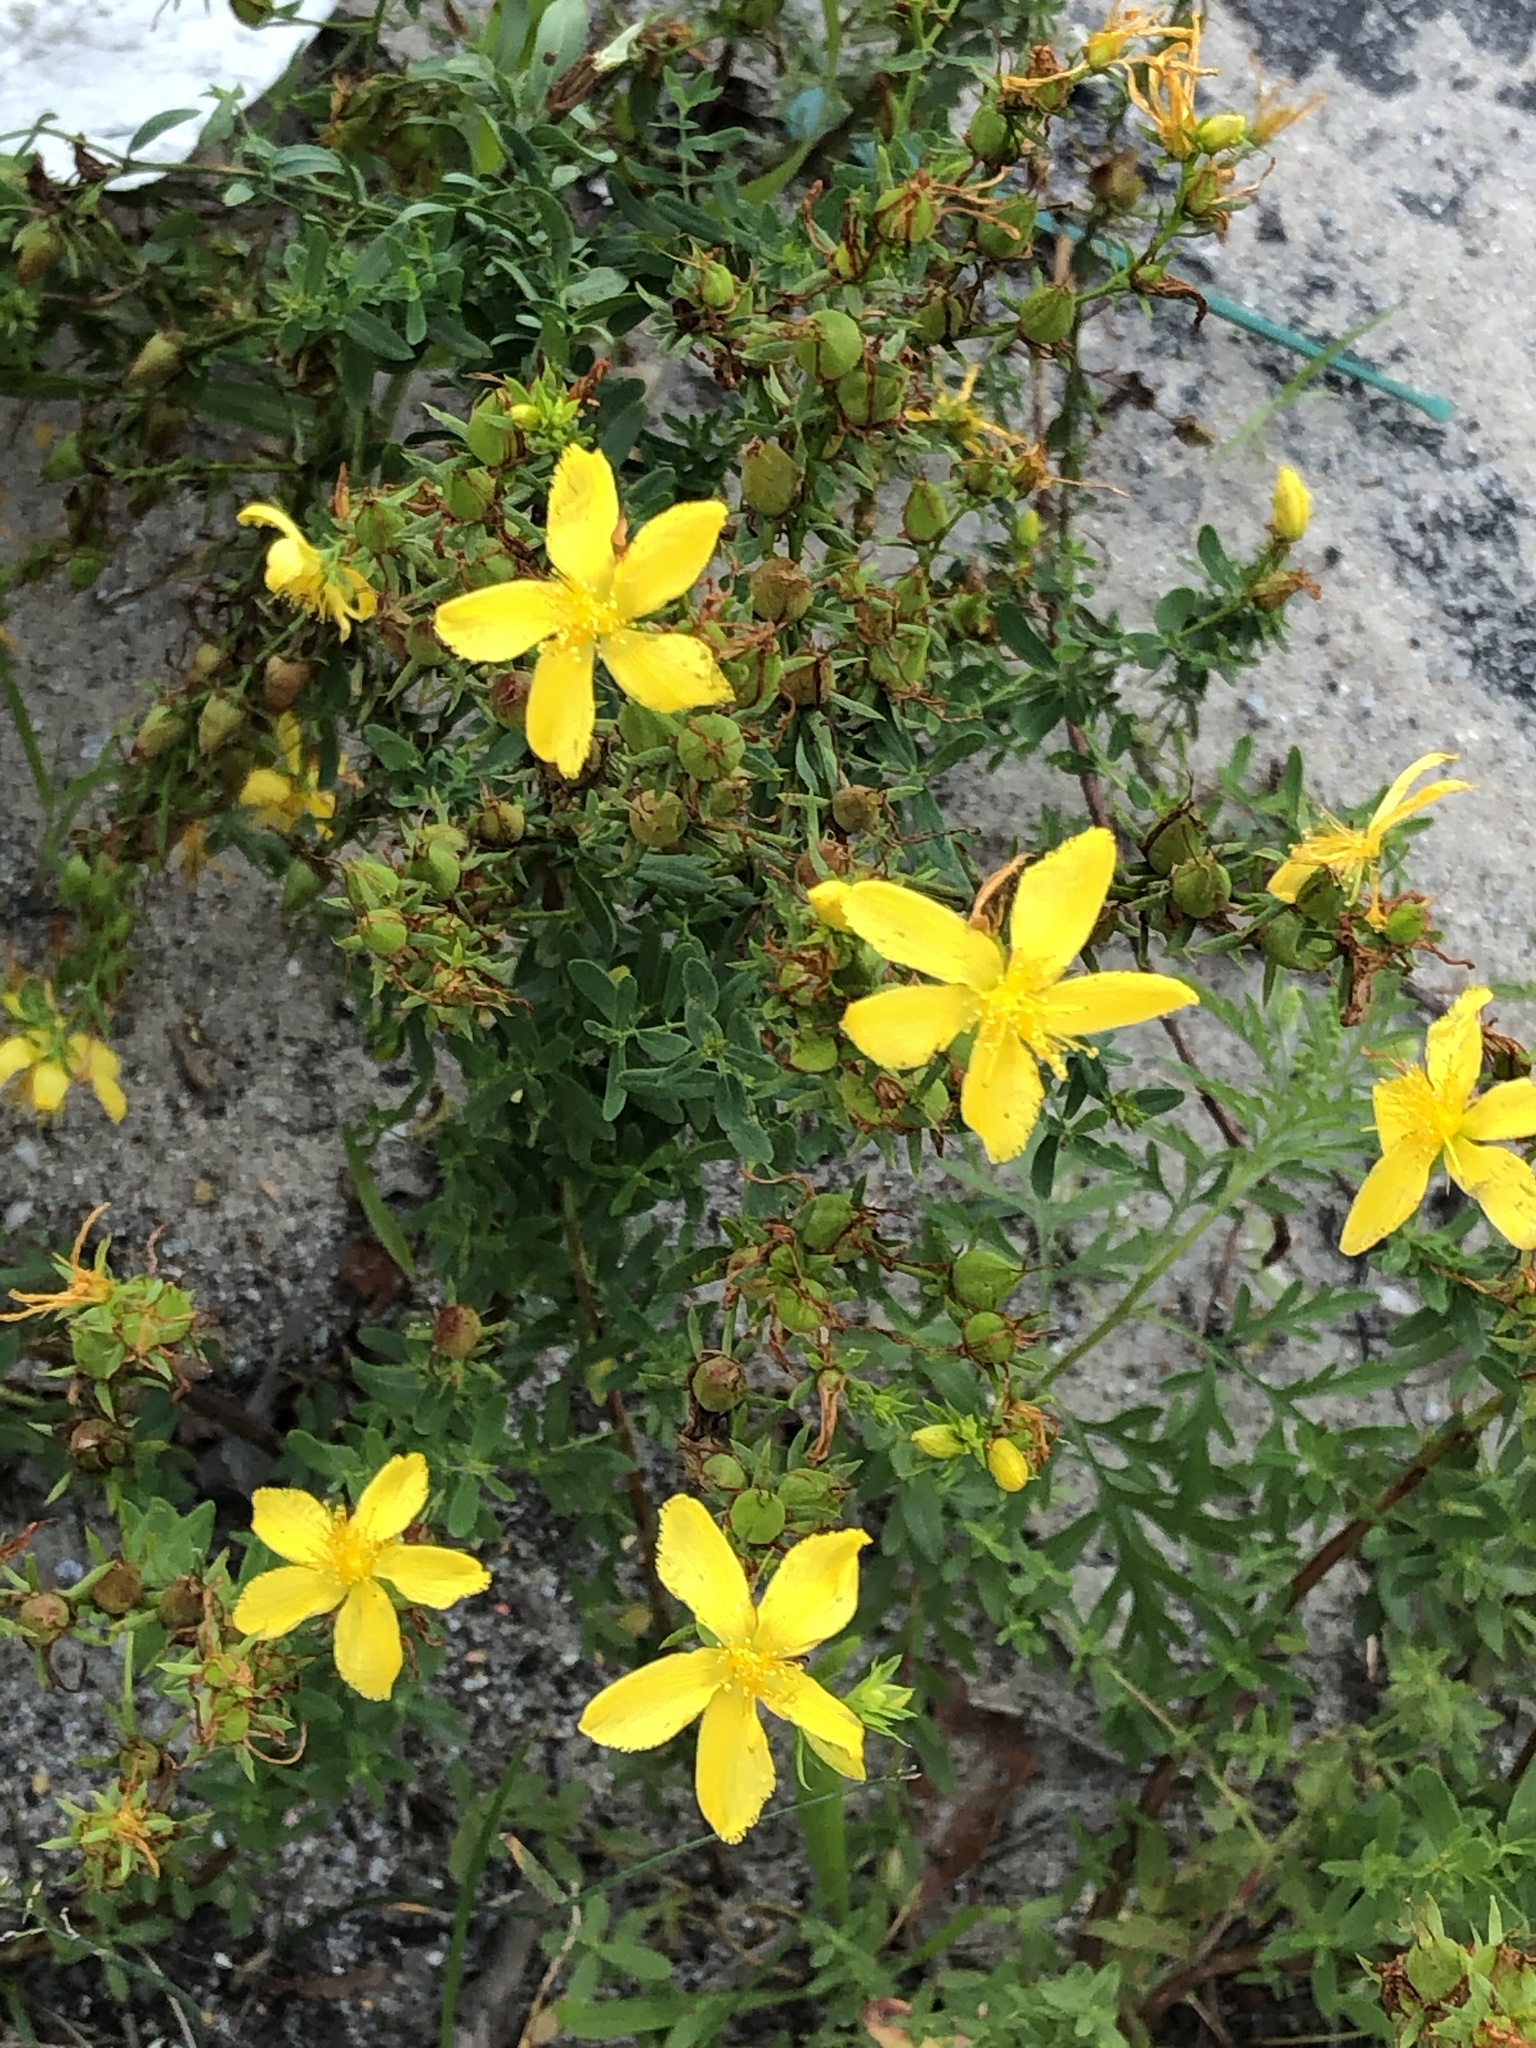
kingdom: Plantae
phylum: Tracheophyta
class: Magnoliopsida
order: Malpighiales
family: Hypericaceae
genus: Hypericum
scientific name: Hypericum perforatum
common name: Common st. johnswort
